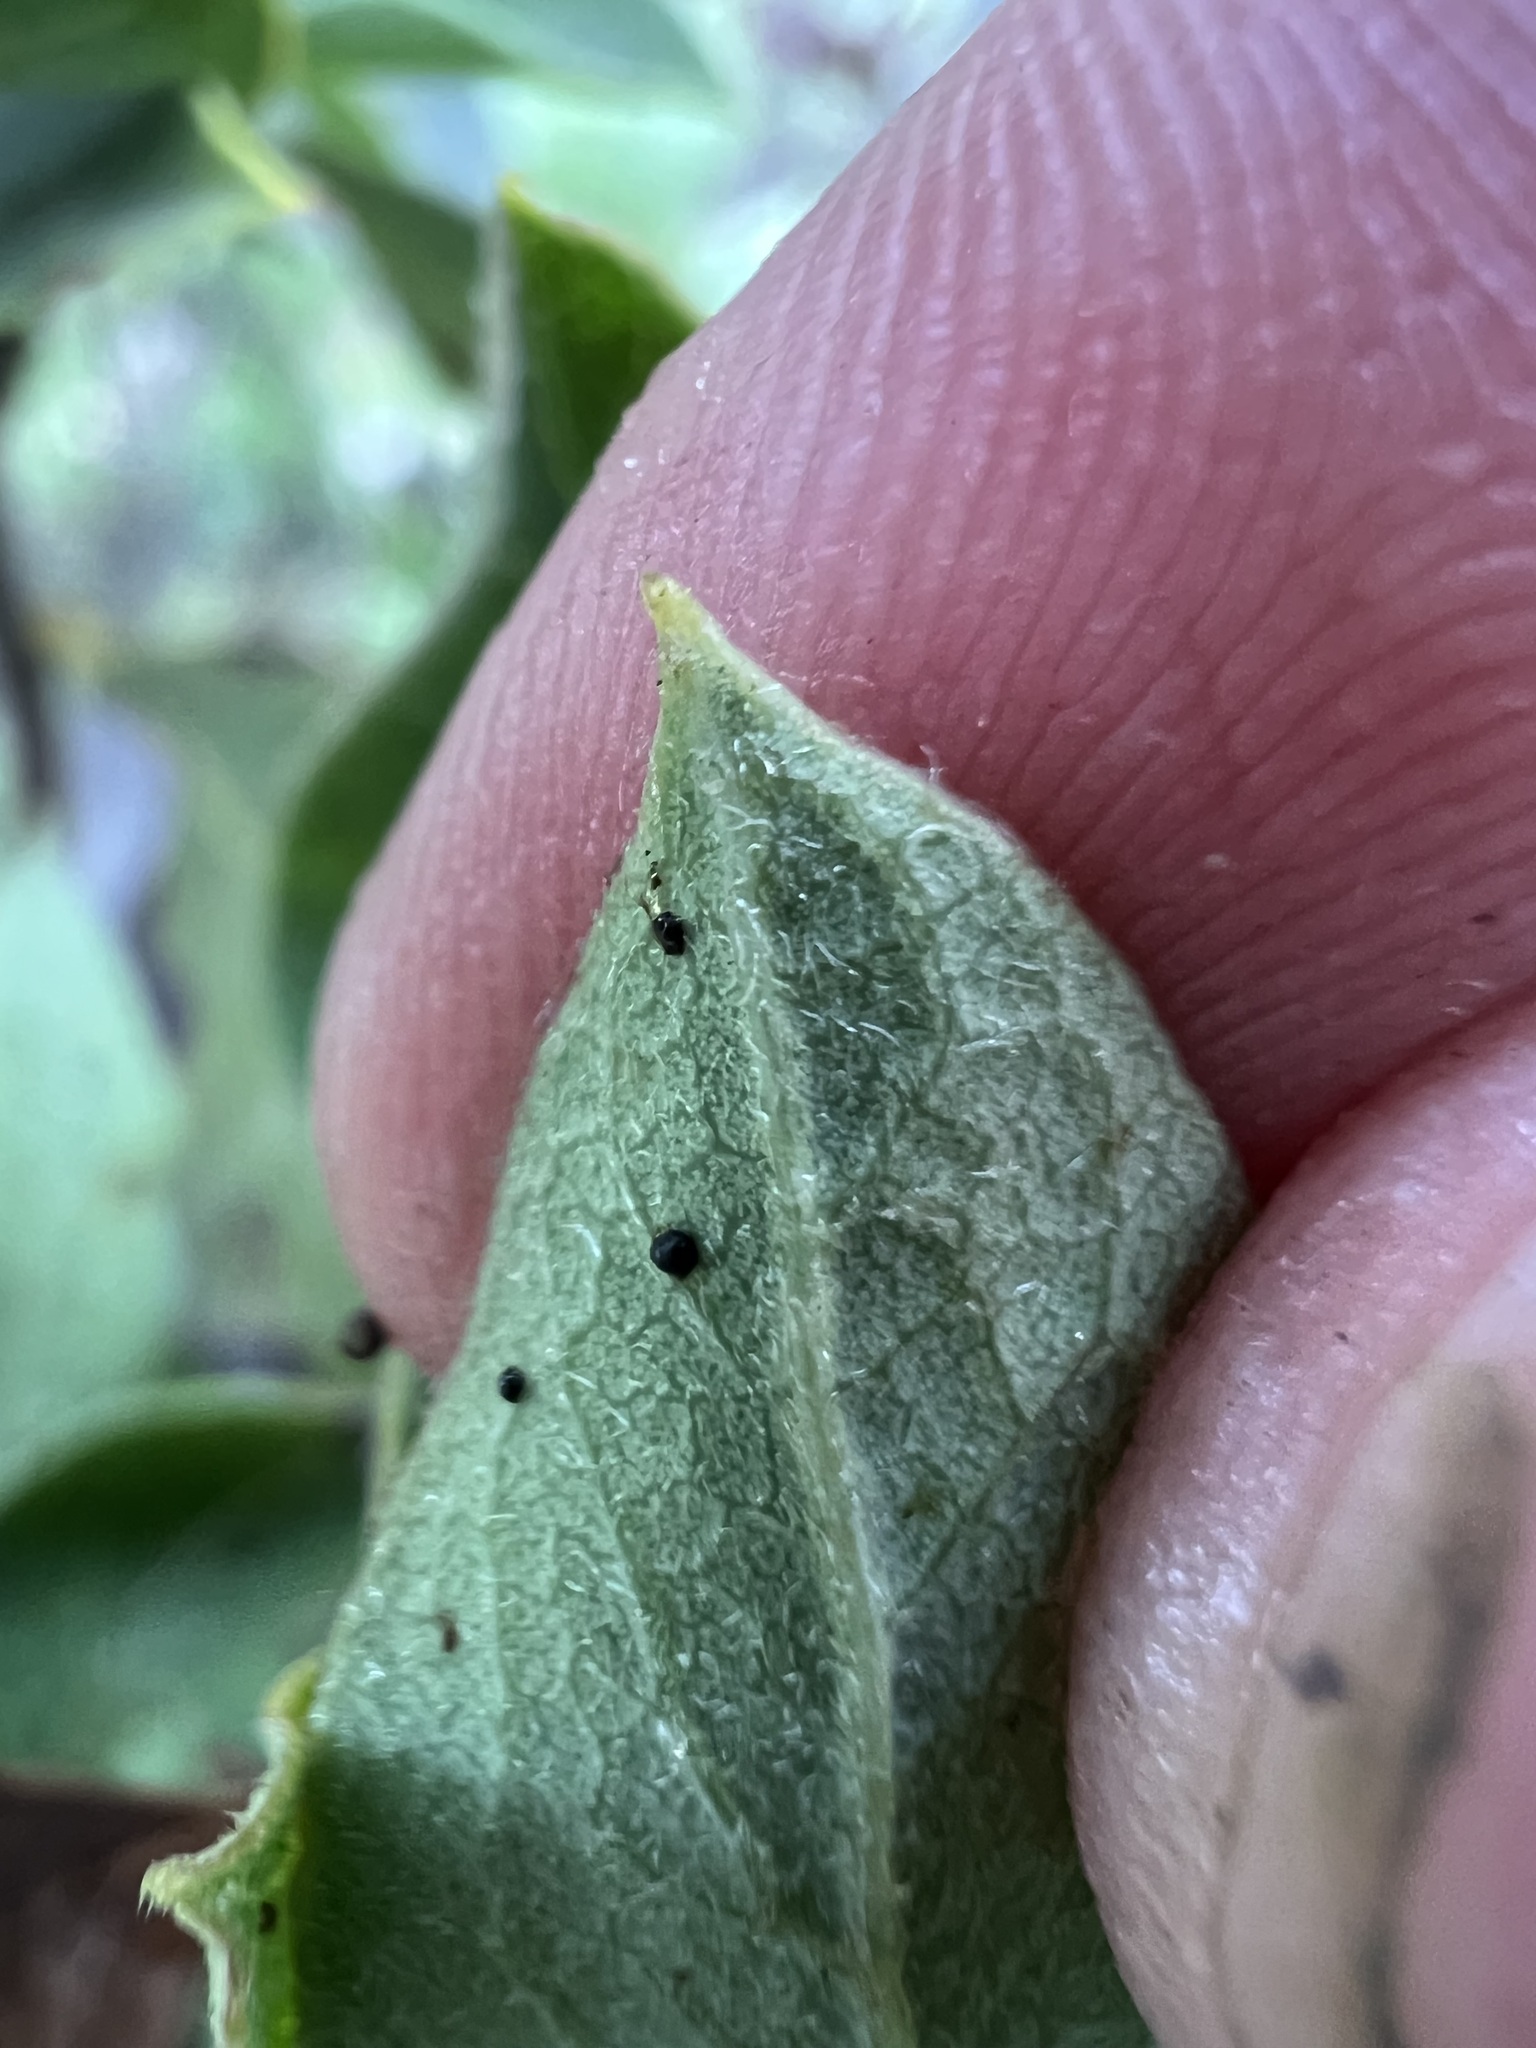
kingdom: Plantae
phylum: Tracheophyta
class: Magnoliopsida
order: Garryales
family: Garryaceae
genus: Garrya
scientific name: Garrya flavescens
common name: Ashy silk-tassel
